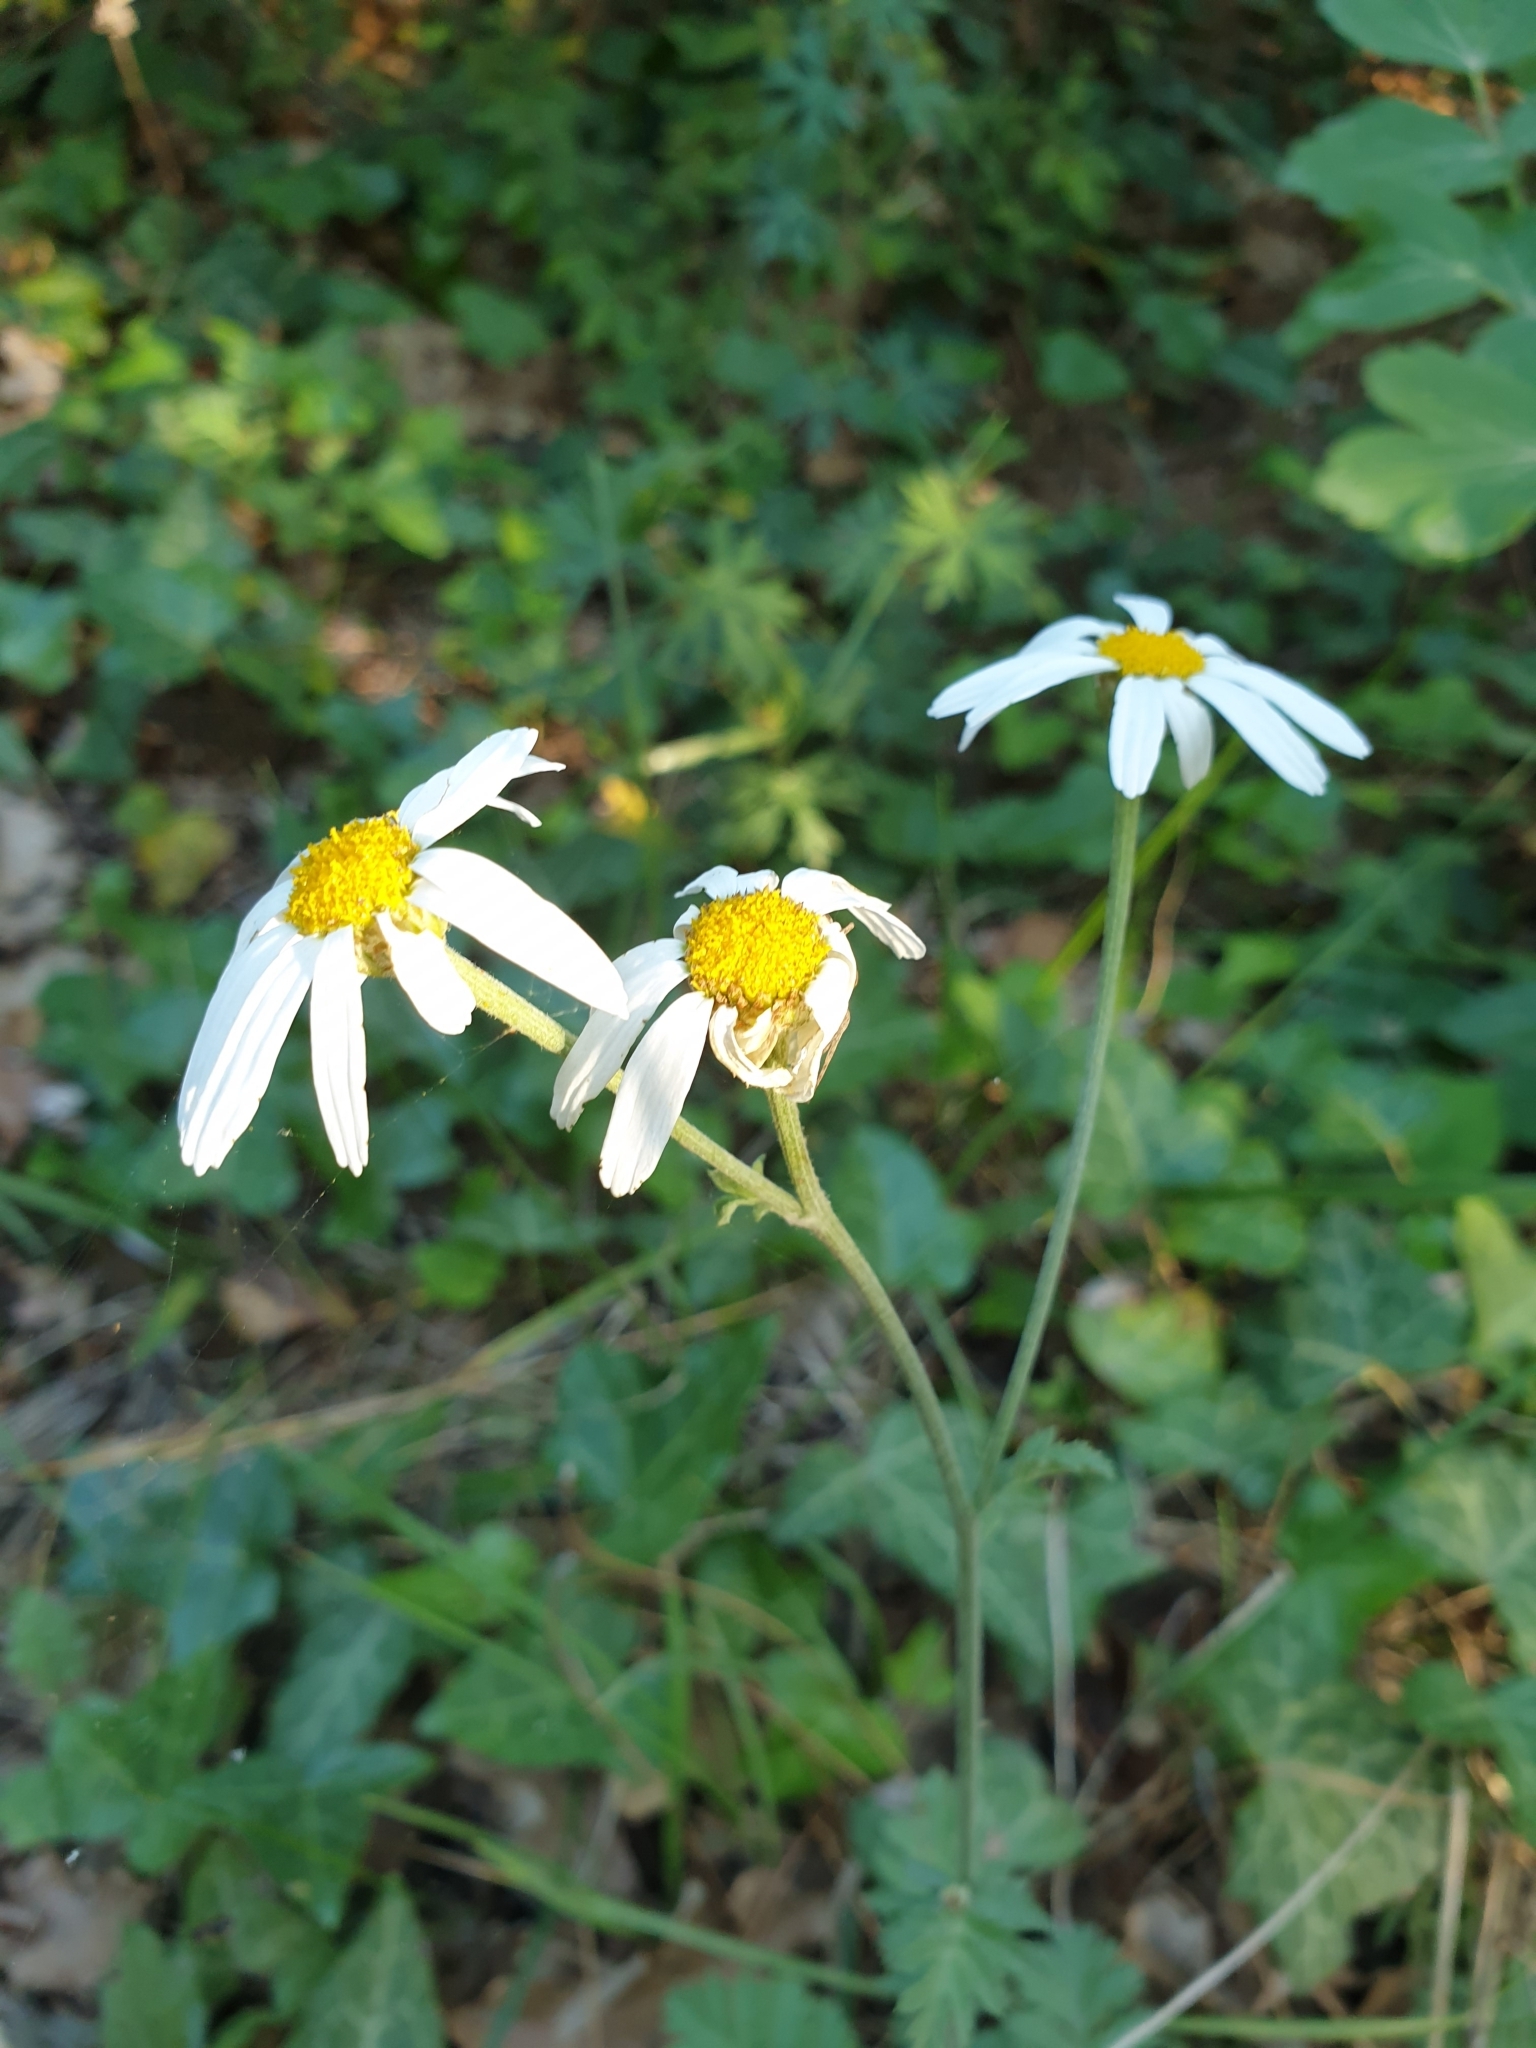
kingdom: Plantae
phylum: Tracheophyta
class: Magnoliopsida
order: Asterales
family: Asteraceae
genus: Tanacetum
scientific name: Tanacetum poteriifolium
